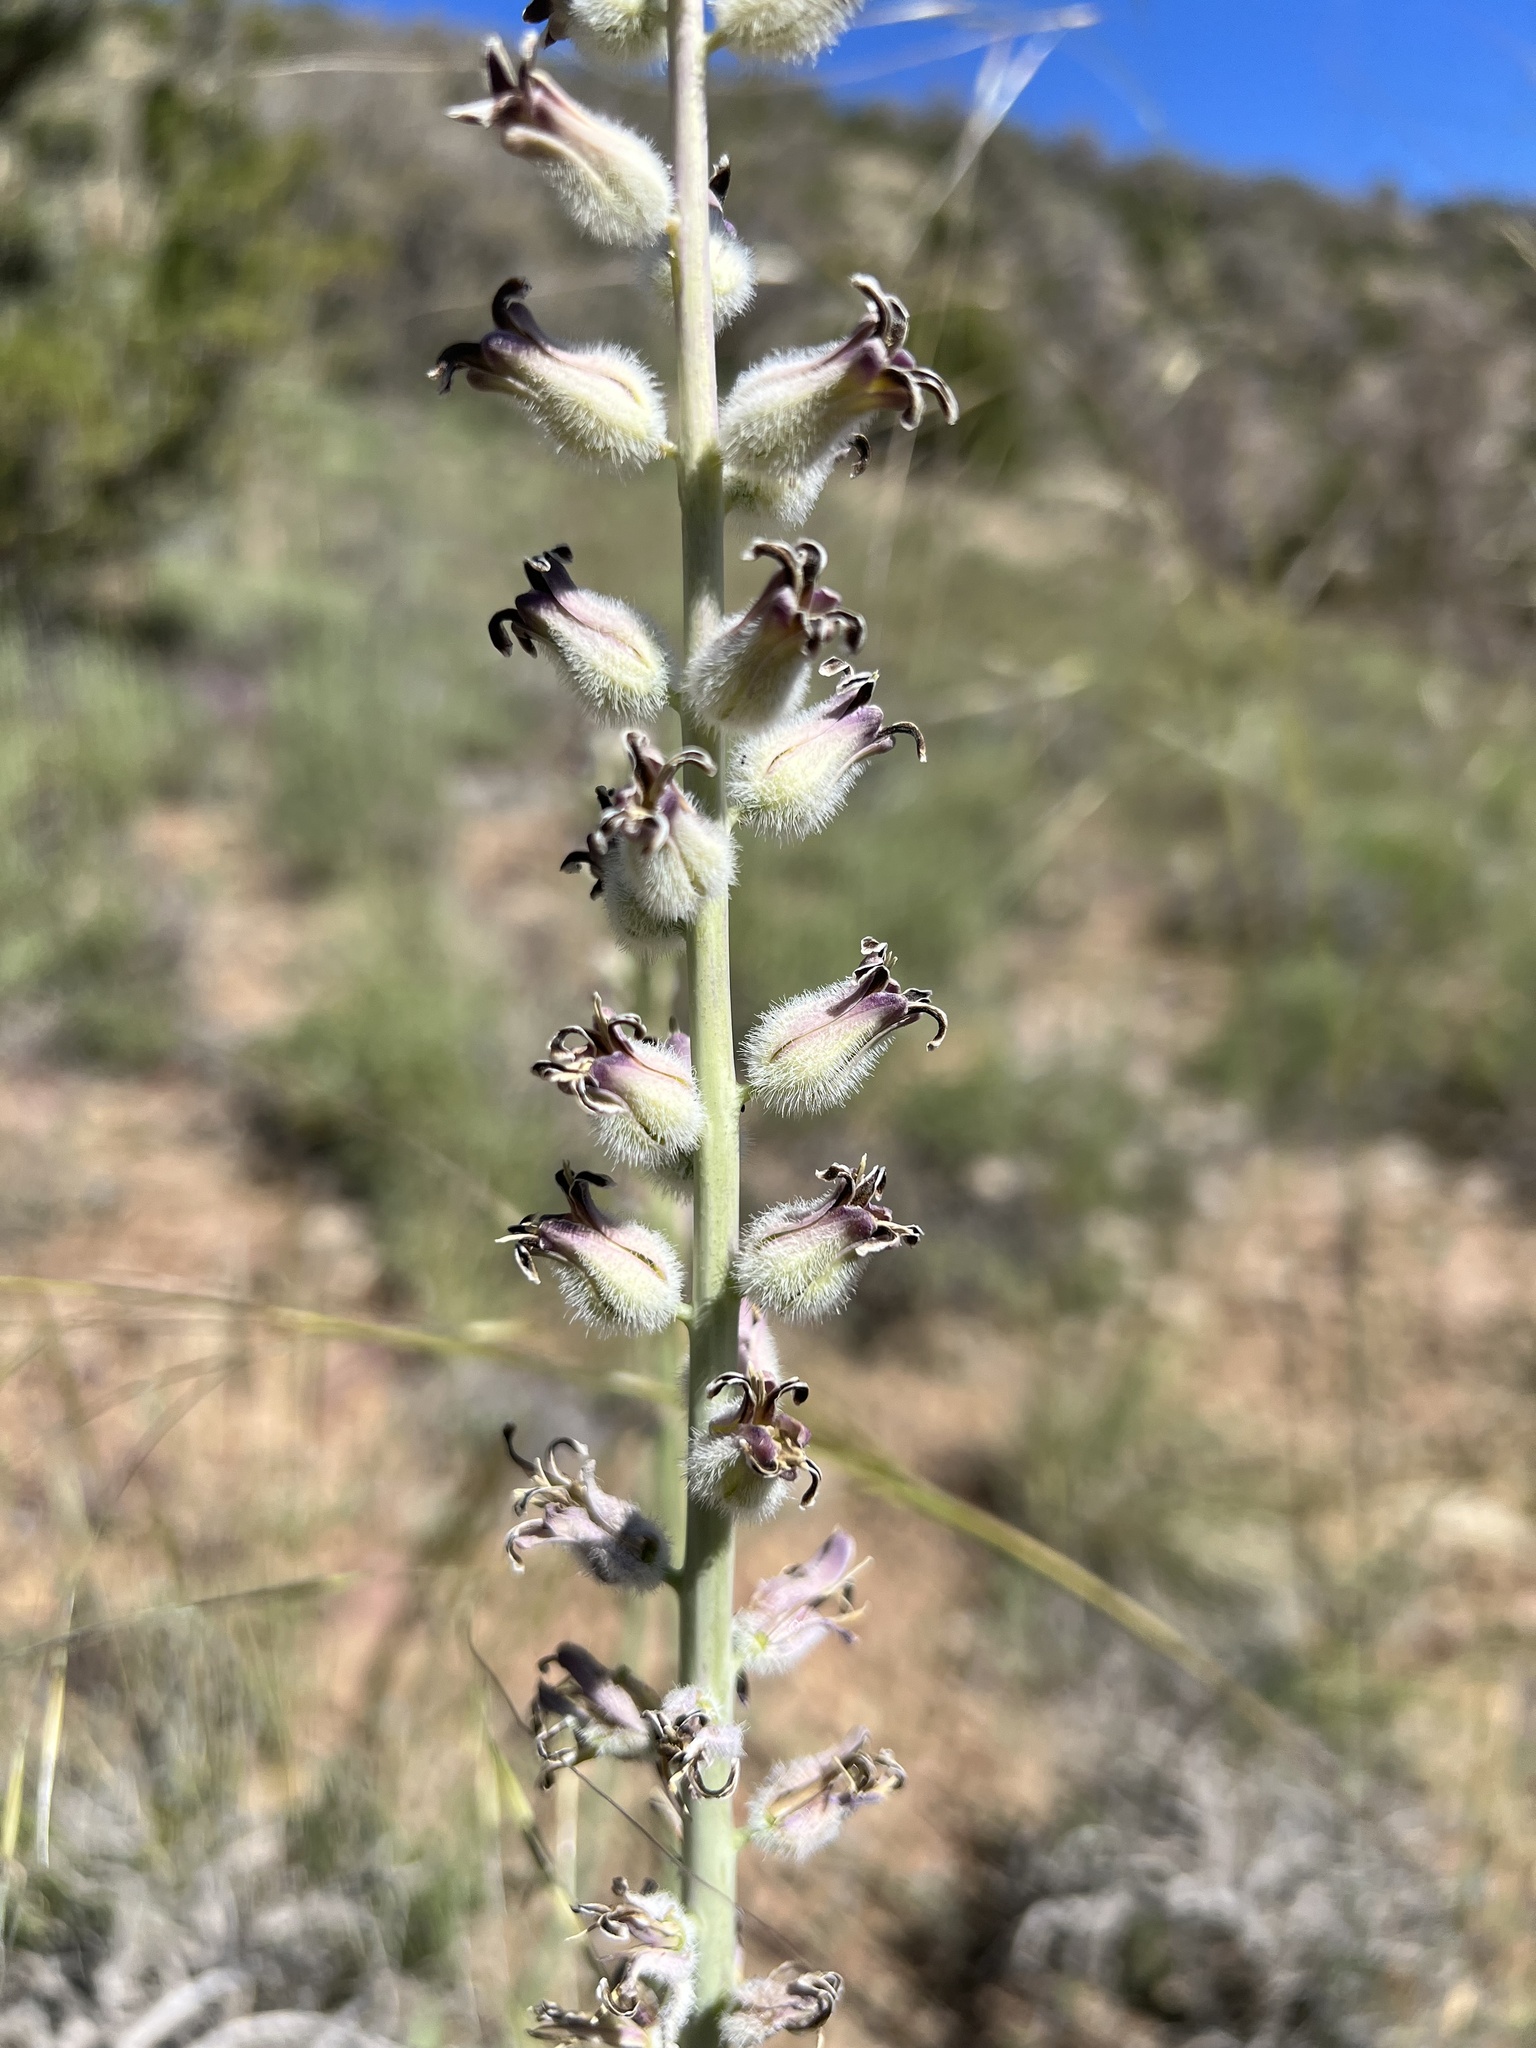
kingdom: Plantae
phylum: Tracheophyta
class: Magnoliopsida
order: Brassicales
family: Brassicaceae
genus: Streptanthus
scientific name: Streptanthus crassicaulis
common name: Thick-stem wild cabbage
